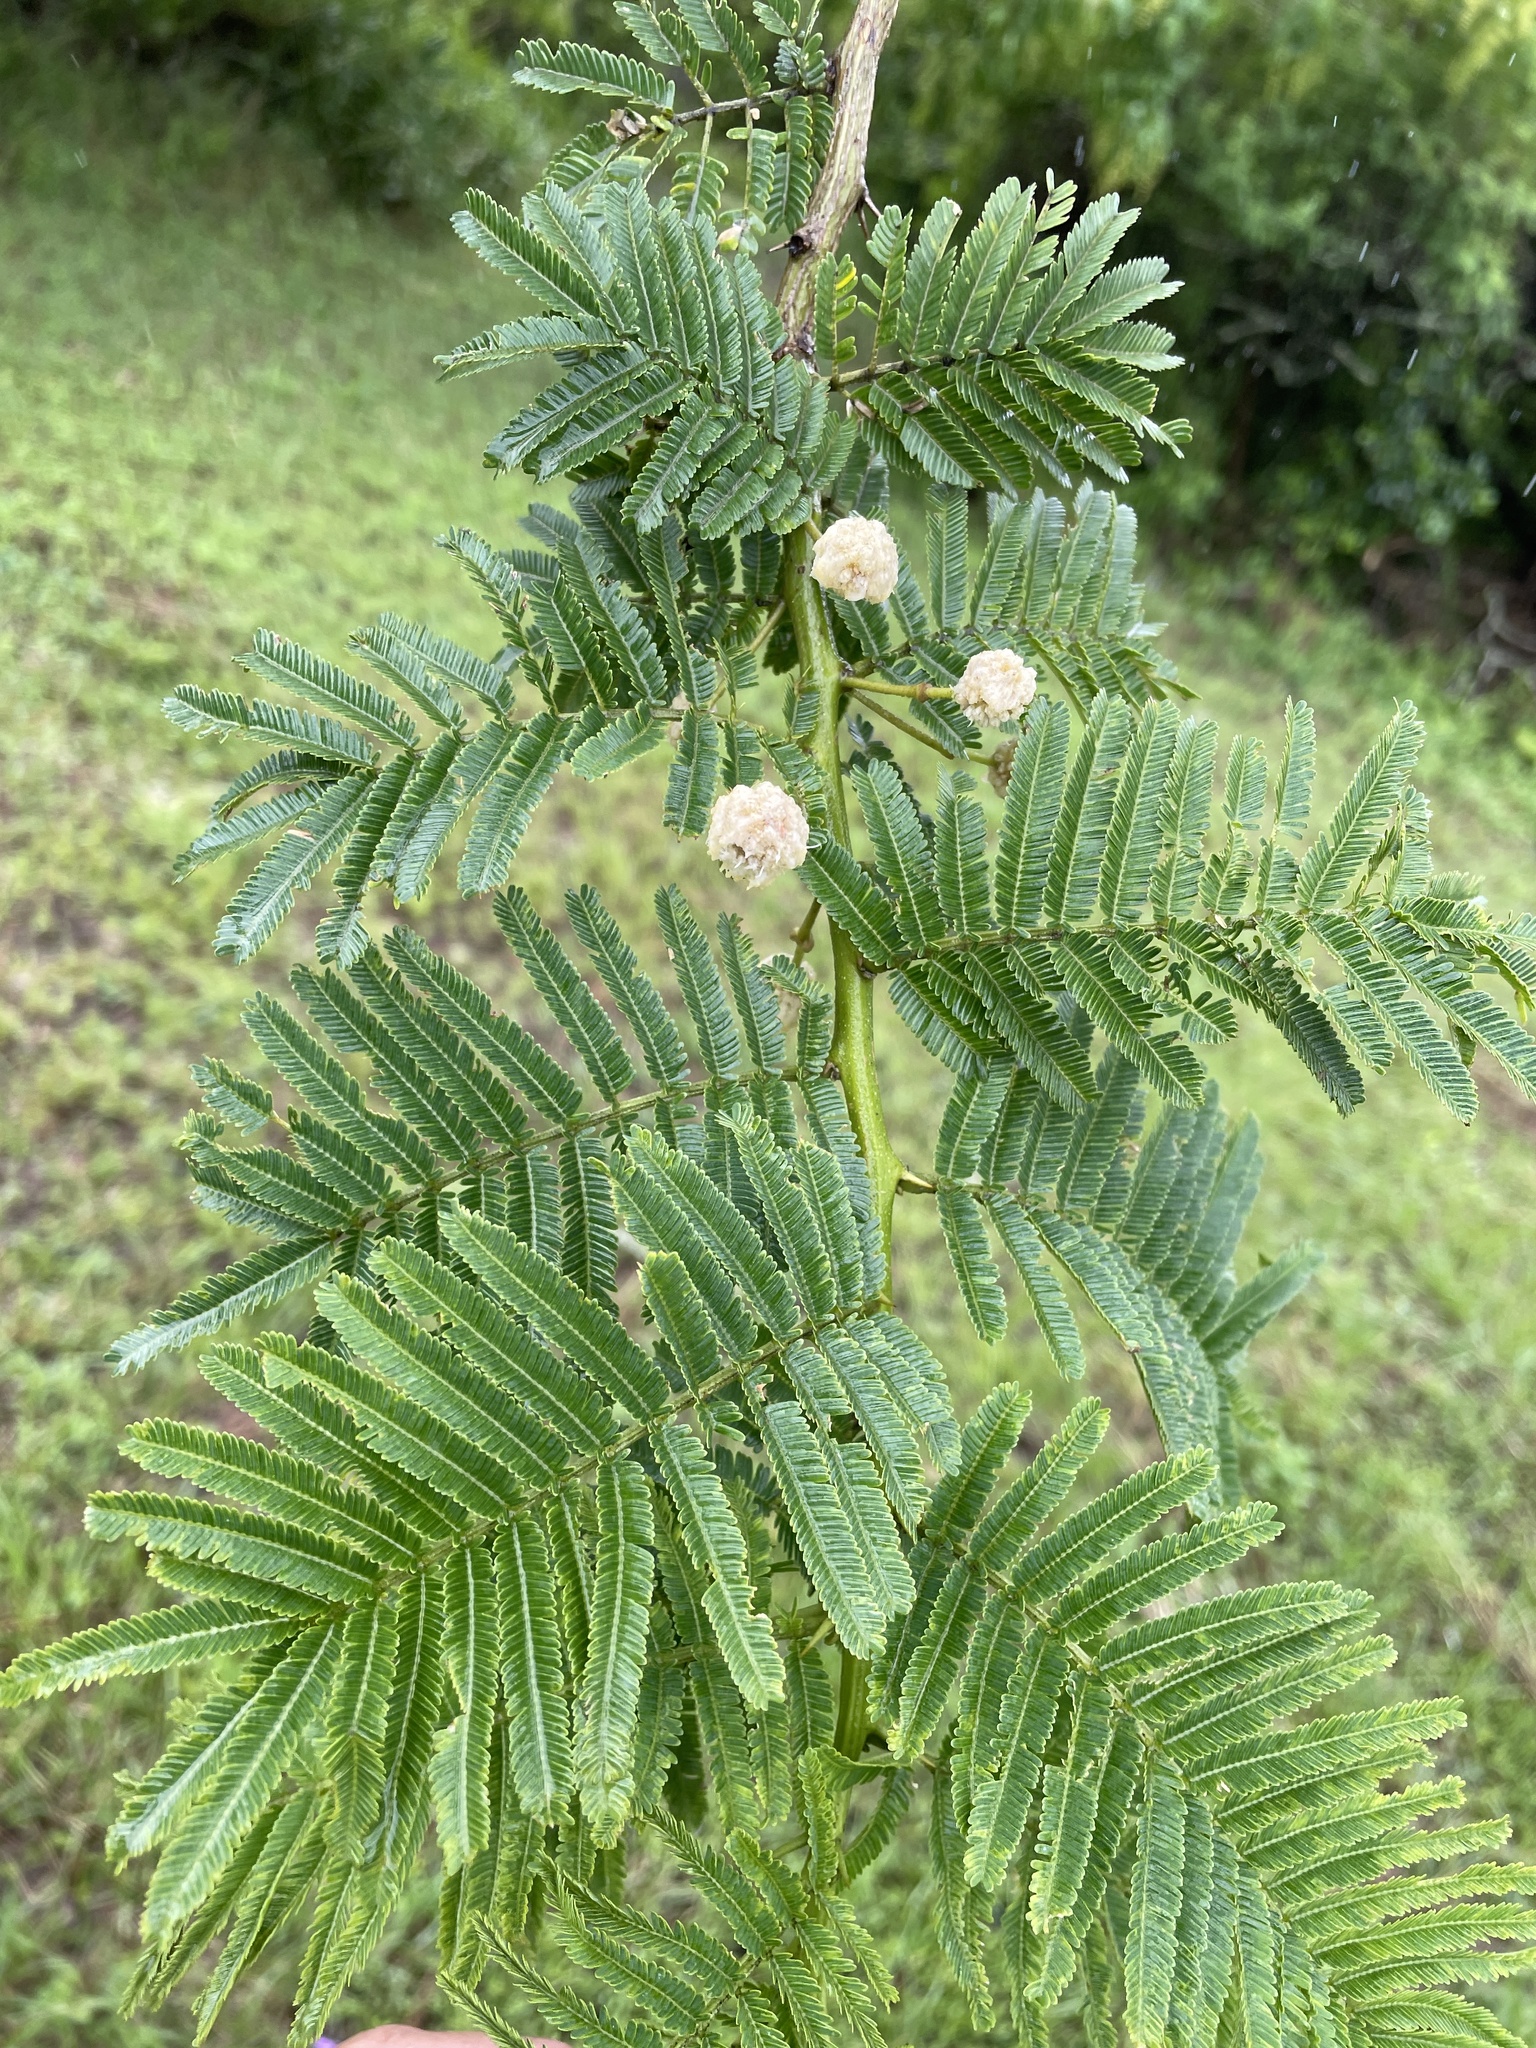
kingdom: Plantae
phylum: Tracheophyta
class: Magnoliopsida
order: Fabales
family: Fabaceae
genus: Vachellia
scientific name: Vachellia sieberiana
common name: Flat-topped thorn
